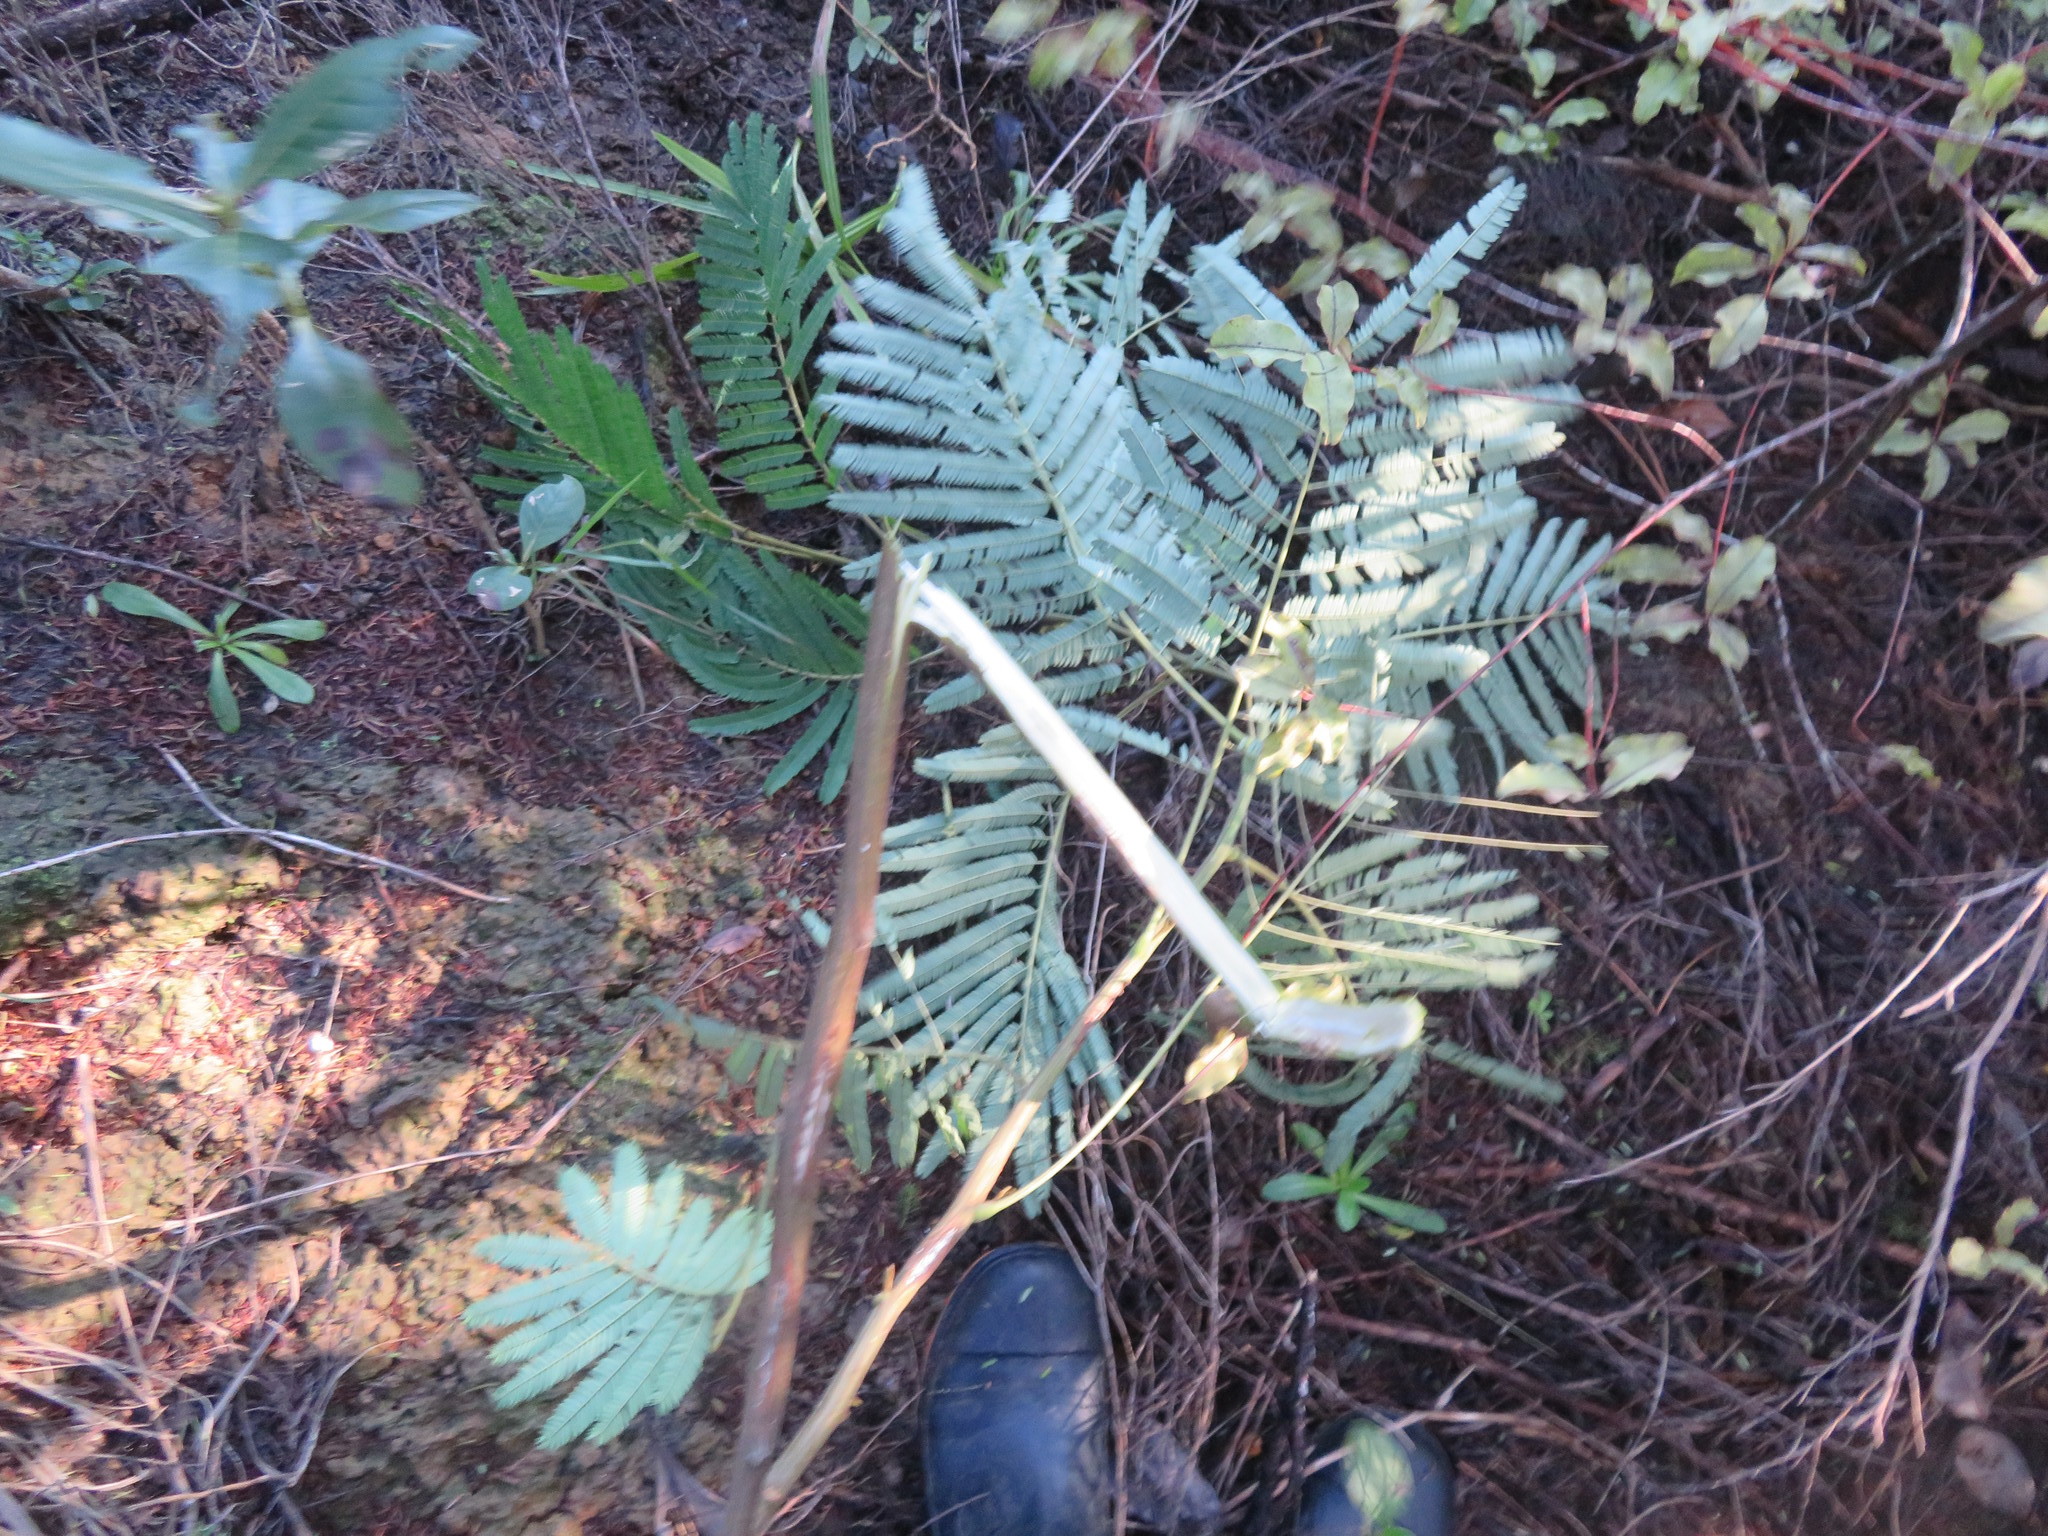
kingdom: Plantae
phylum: Tracheophyta
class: Magnoliopsida
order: Fabales
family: Fabaceae
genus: Paraserianthes
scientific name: Paraserianthes lophantha
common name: Plume albizia
